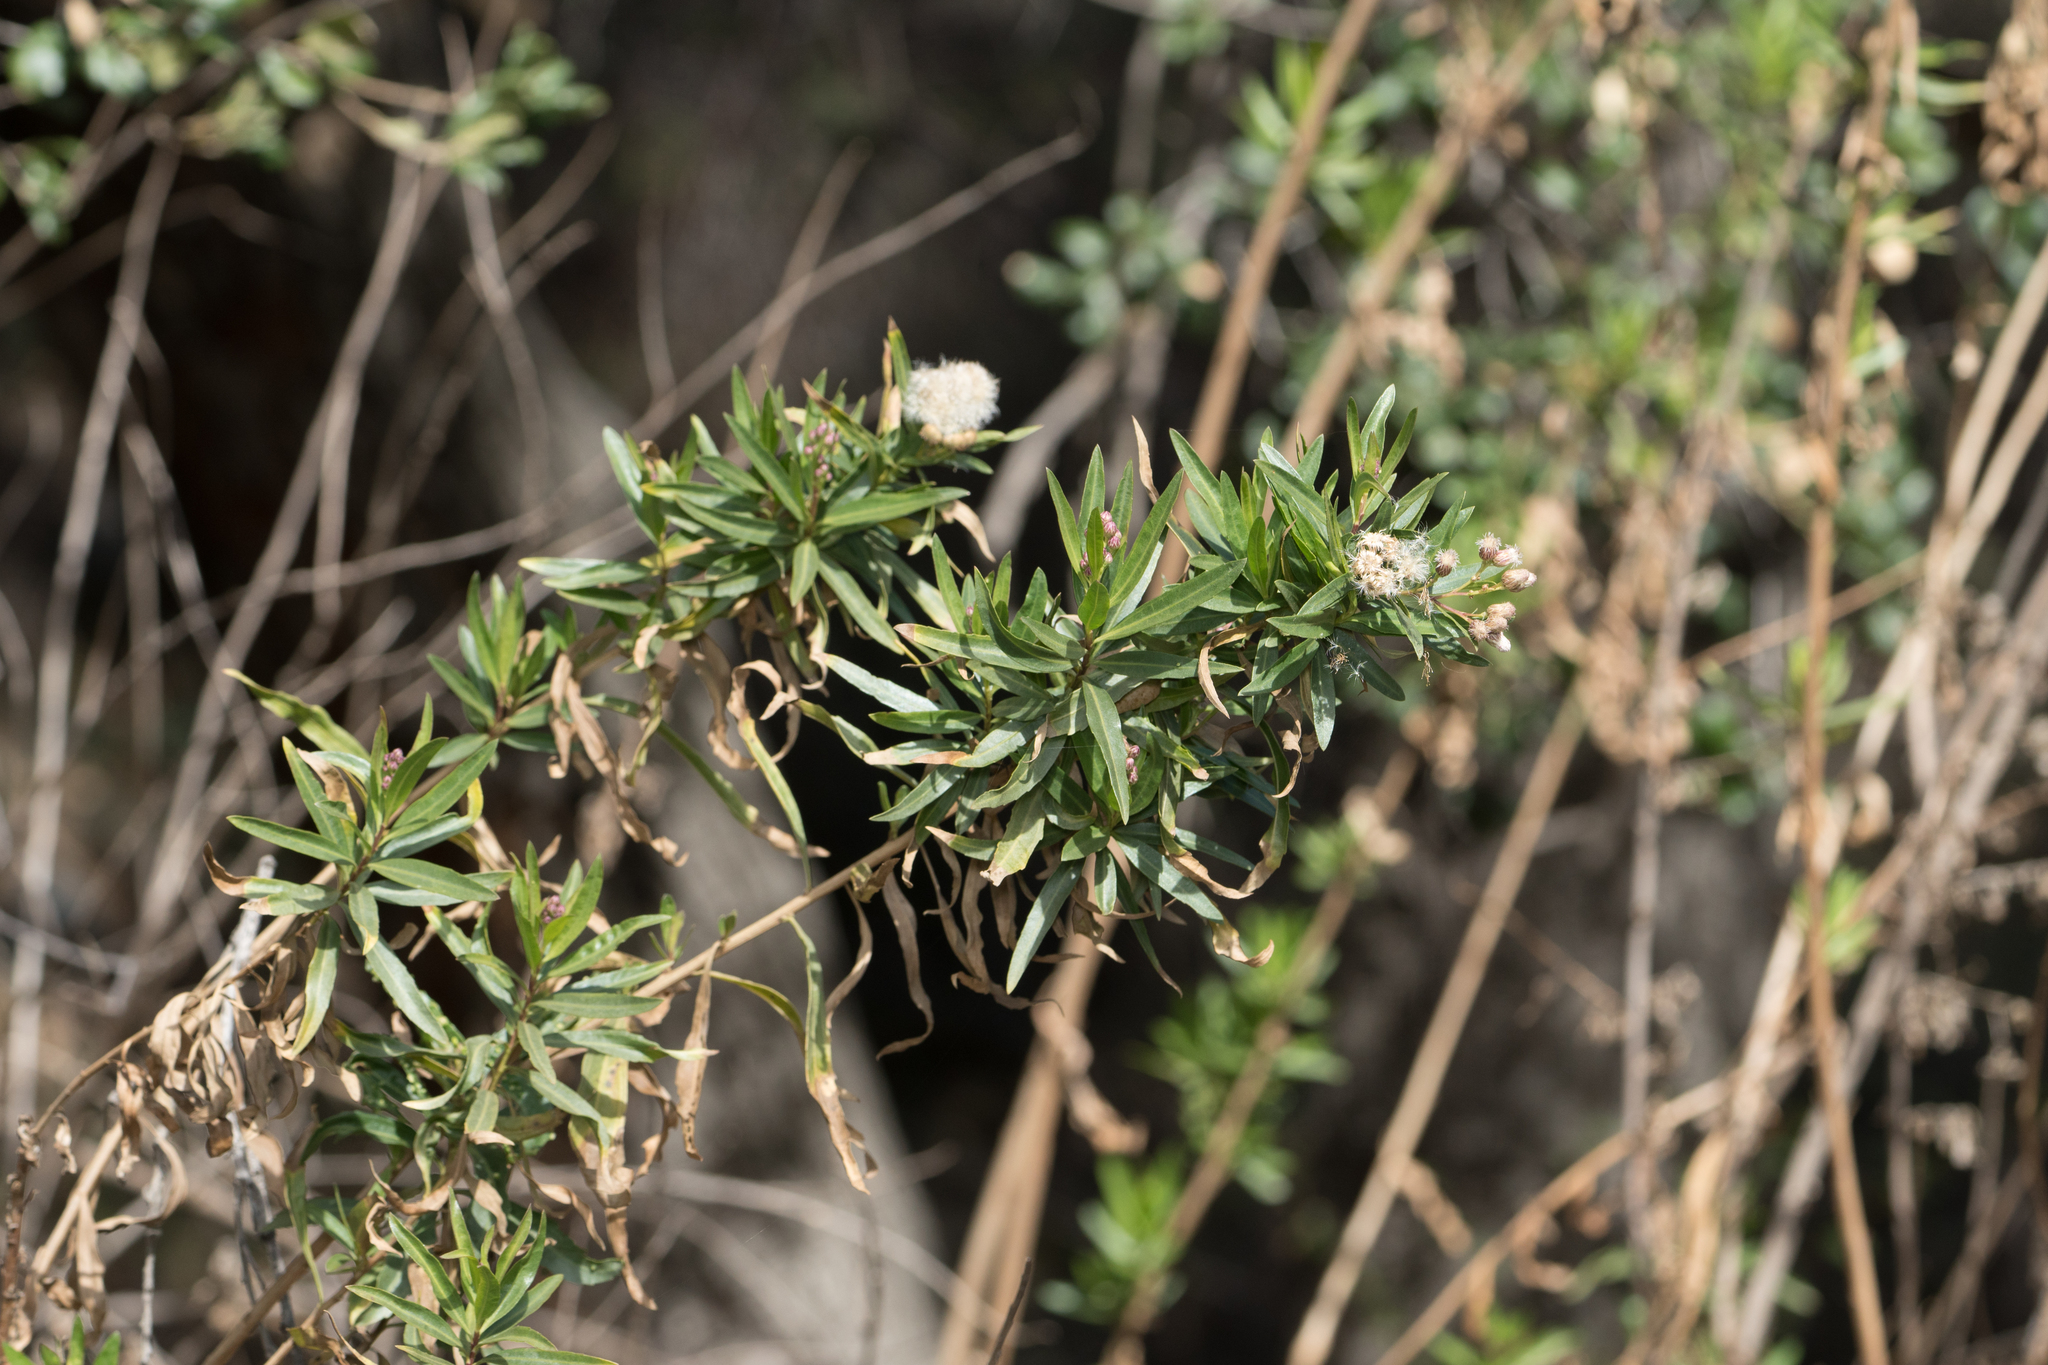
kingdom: Plantae
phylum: Tracheophyta
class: Magnoliopsida
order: Asterales
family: Asteraceae
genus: Baccharis
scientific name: Baccharis salicifolia
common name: Sticky baccharis
